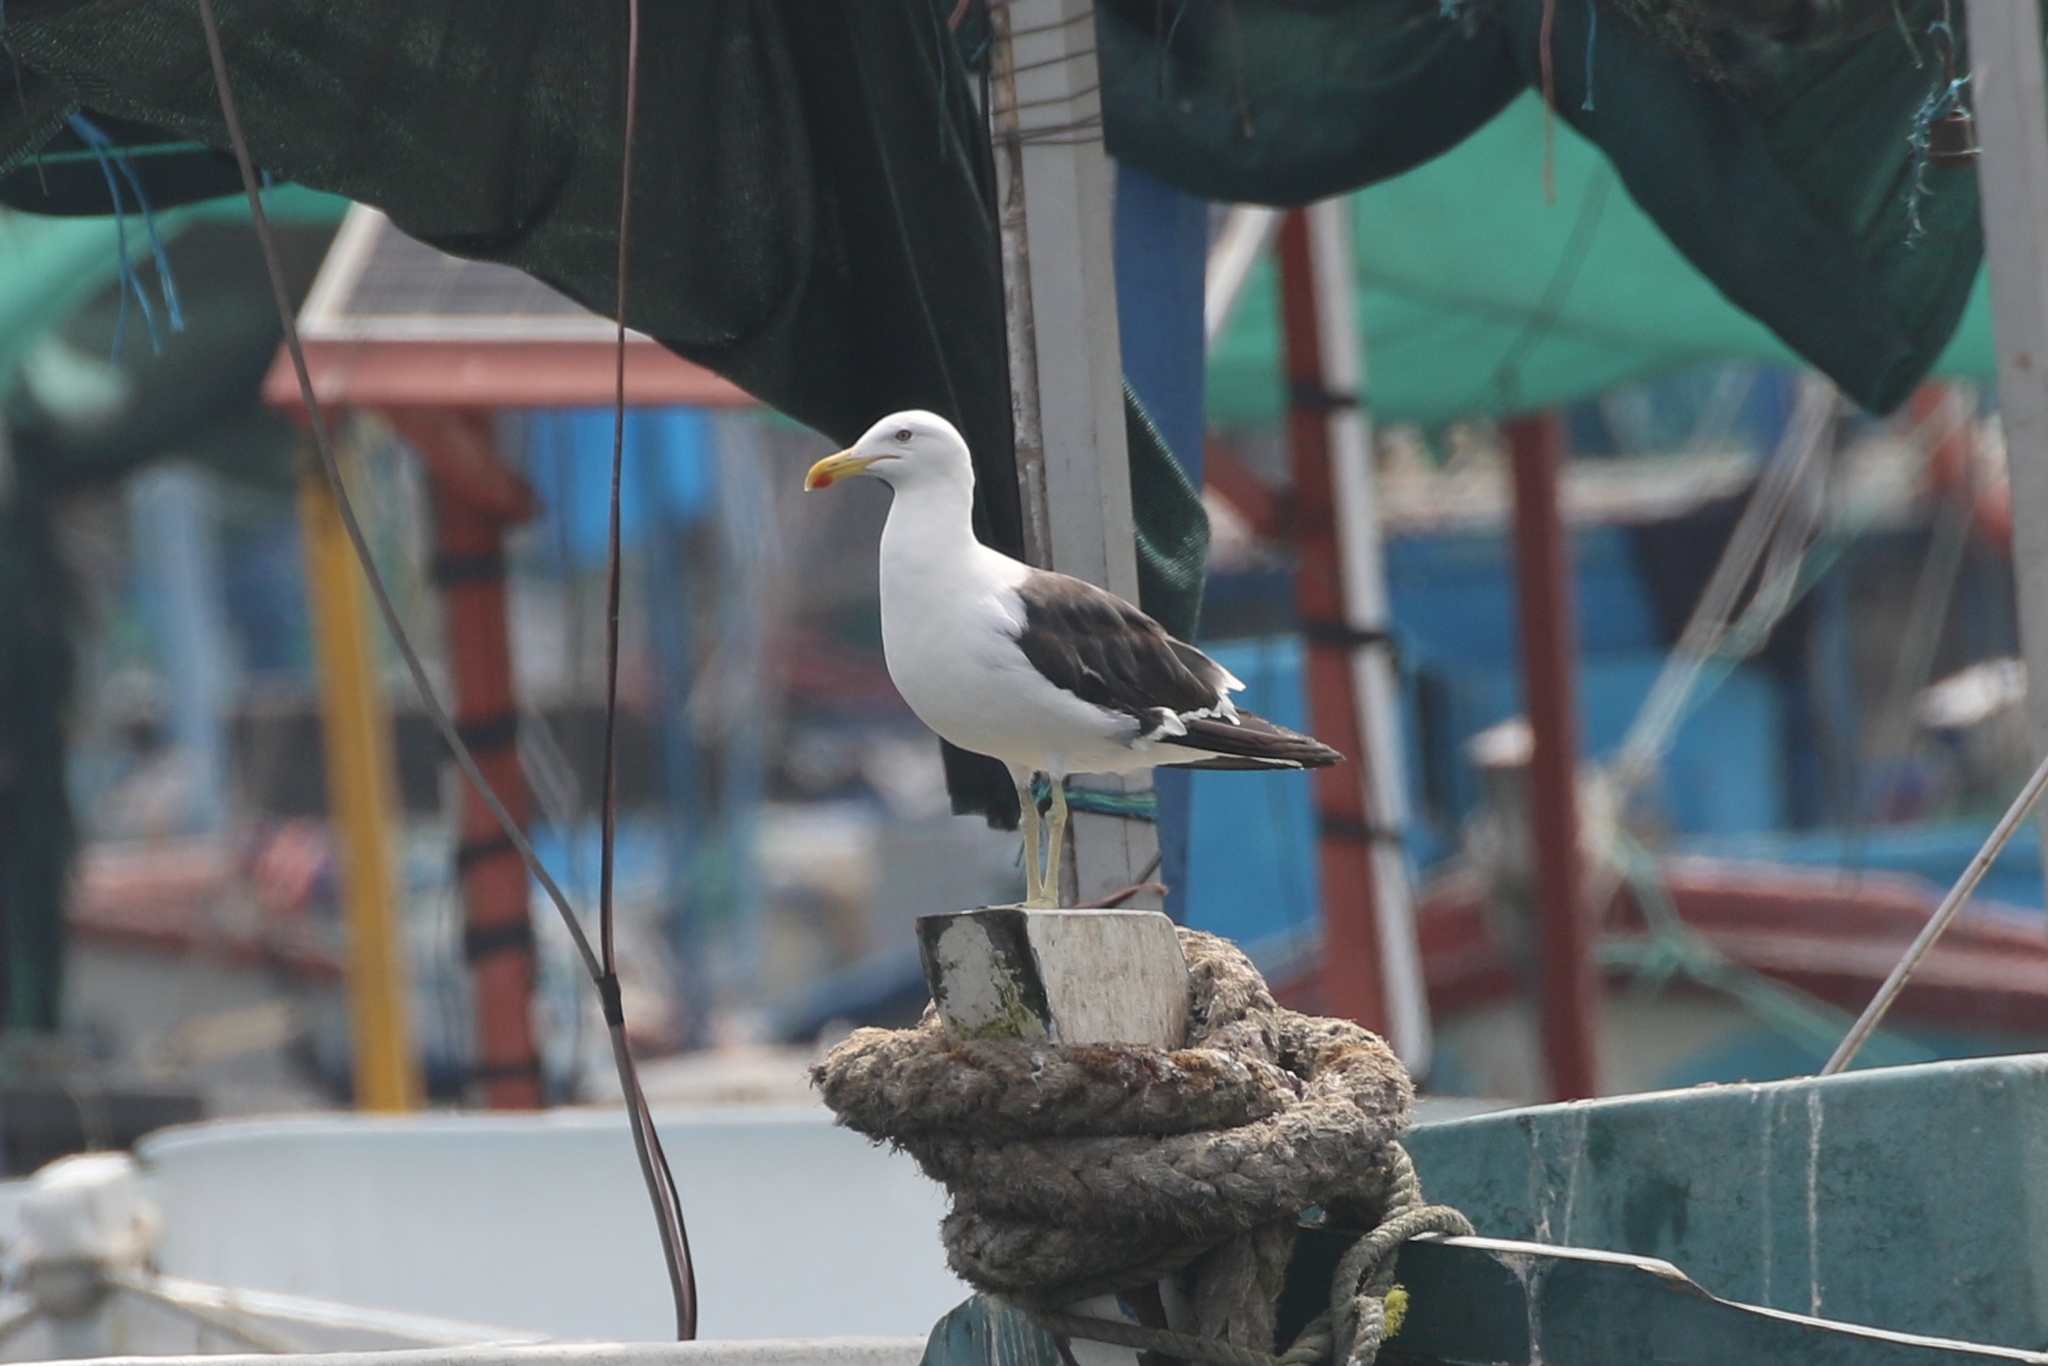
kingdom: Animalia
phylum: Chordata
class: Aves
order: Charadriiformes
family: Laridae
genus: Larus
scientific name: Larus dominicanus
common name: Kelp gull
